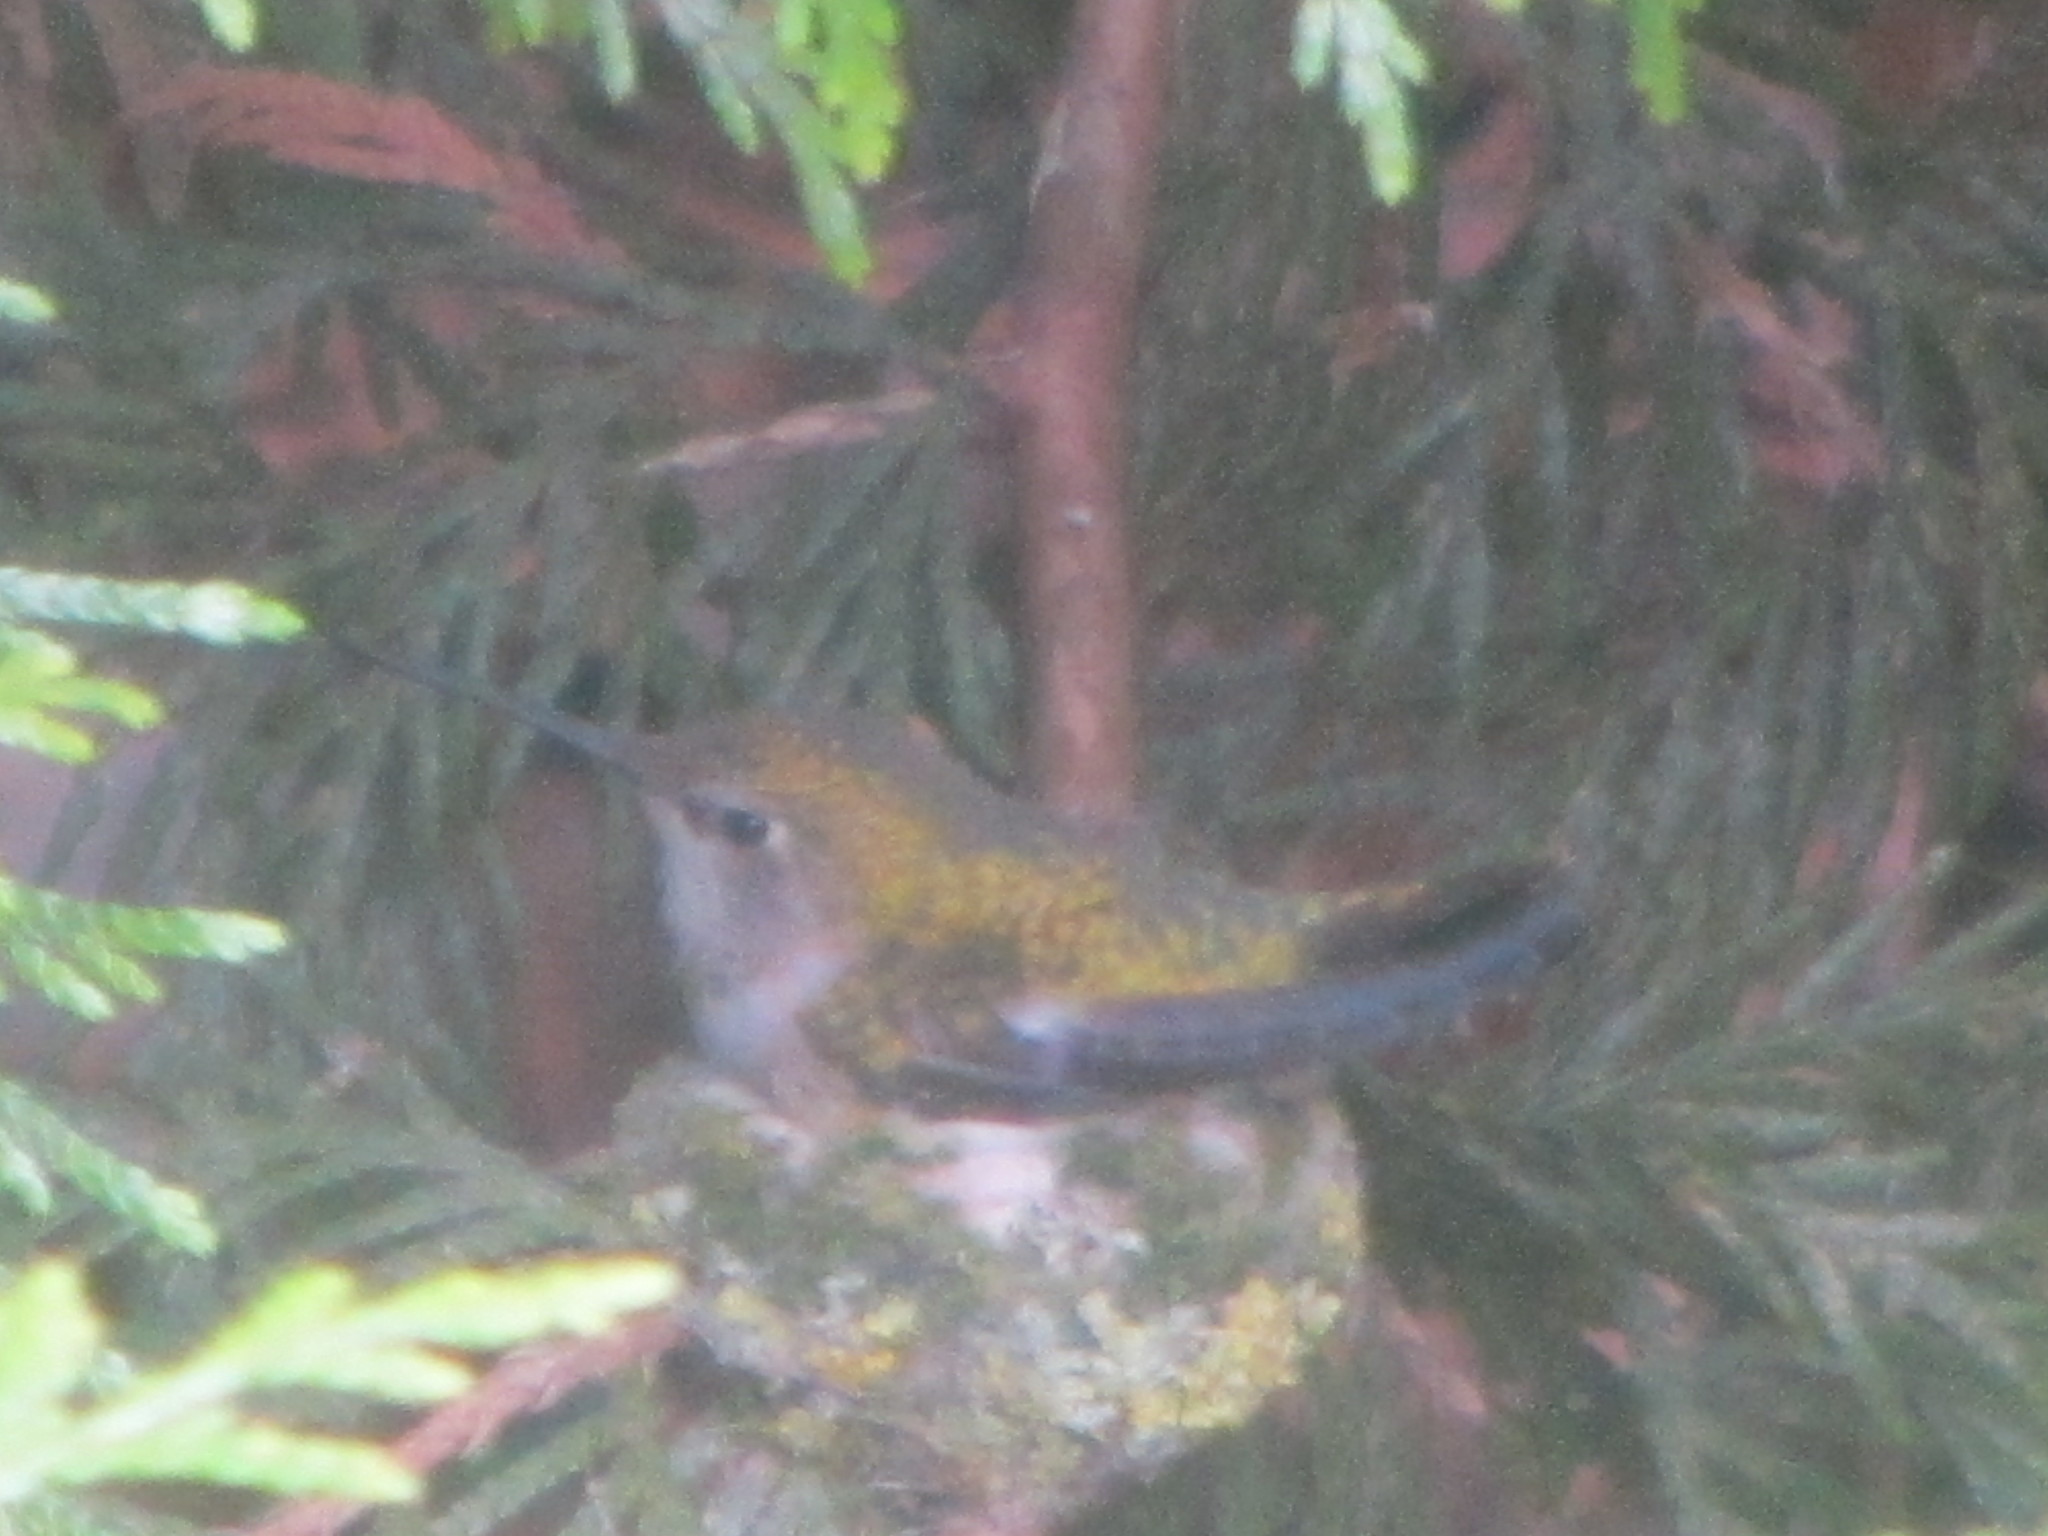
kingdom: Animalia
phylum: Chordata
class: Aves
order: Apodiformes
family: Trochilidae
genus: Calypte
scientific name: Calypte anna
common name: Anna's hummingbird
